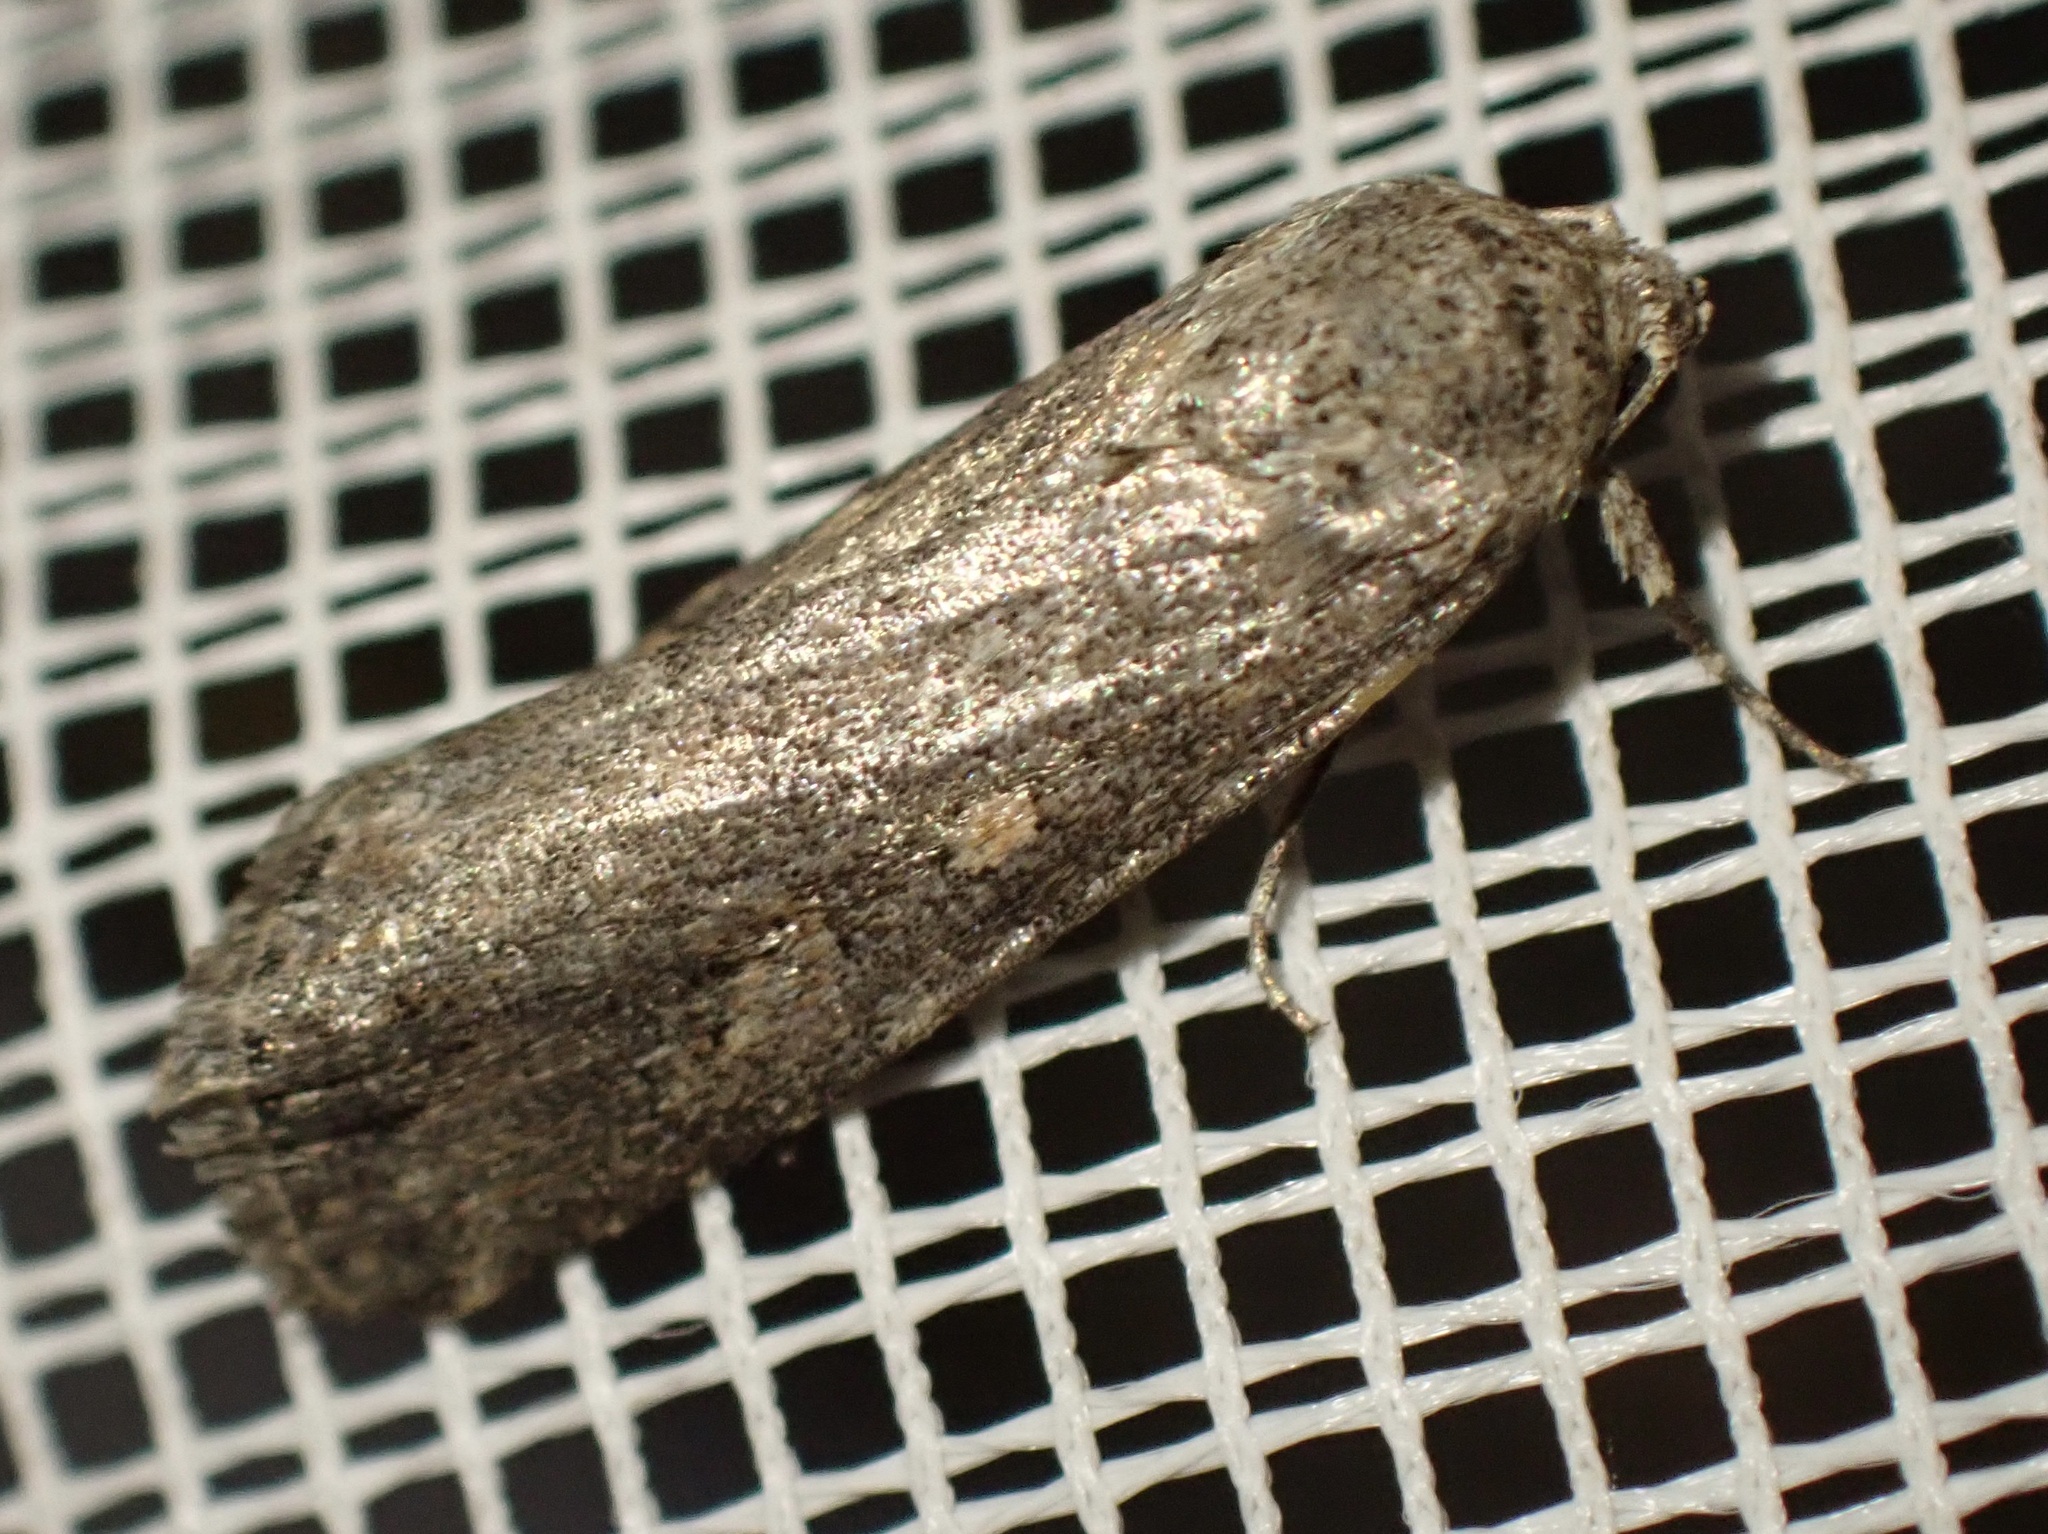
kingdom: Animalia
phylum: Arthropoda
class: Insecta
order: Lepidoptera
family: Noctuidae
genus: Spodoptera
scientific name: Spodoptera exigua
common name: Beet armyworm
